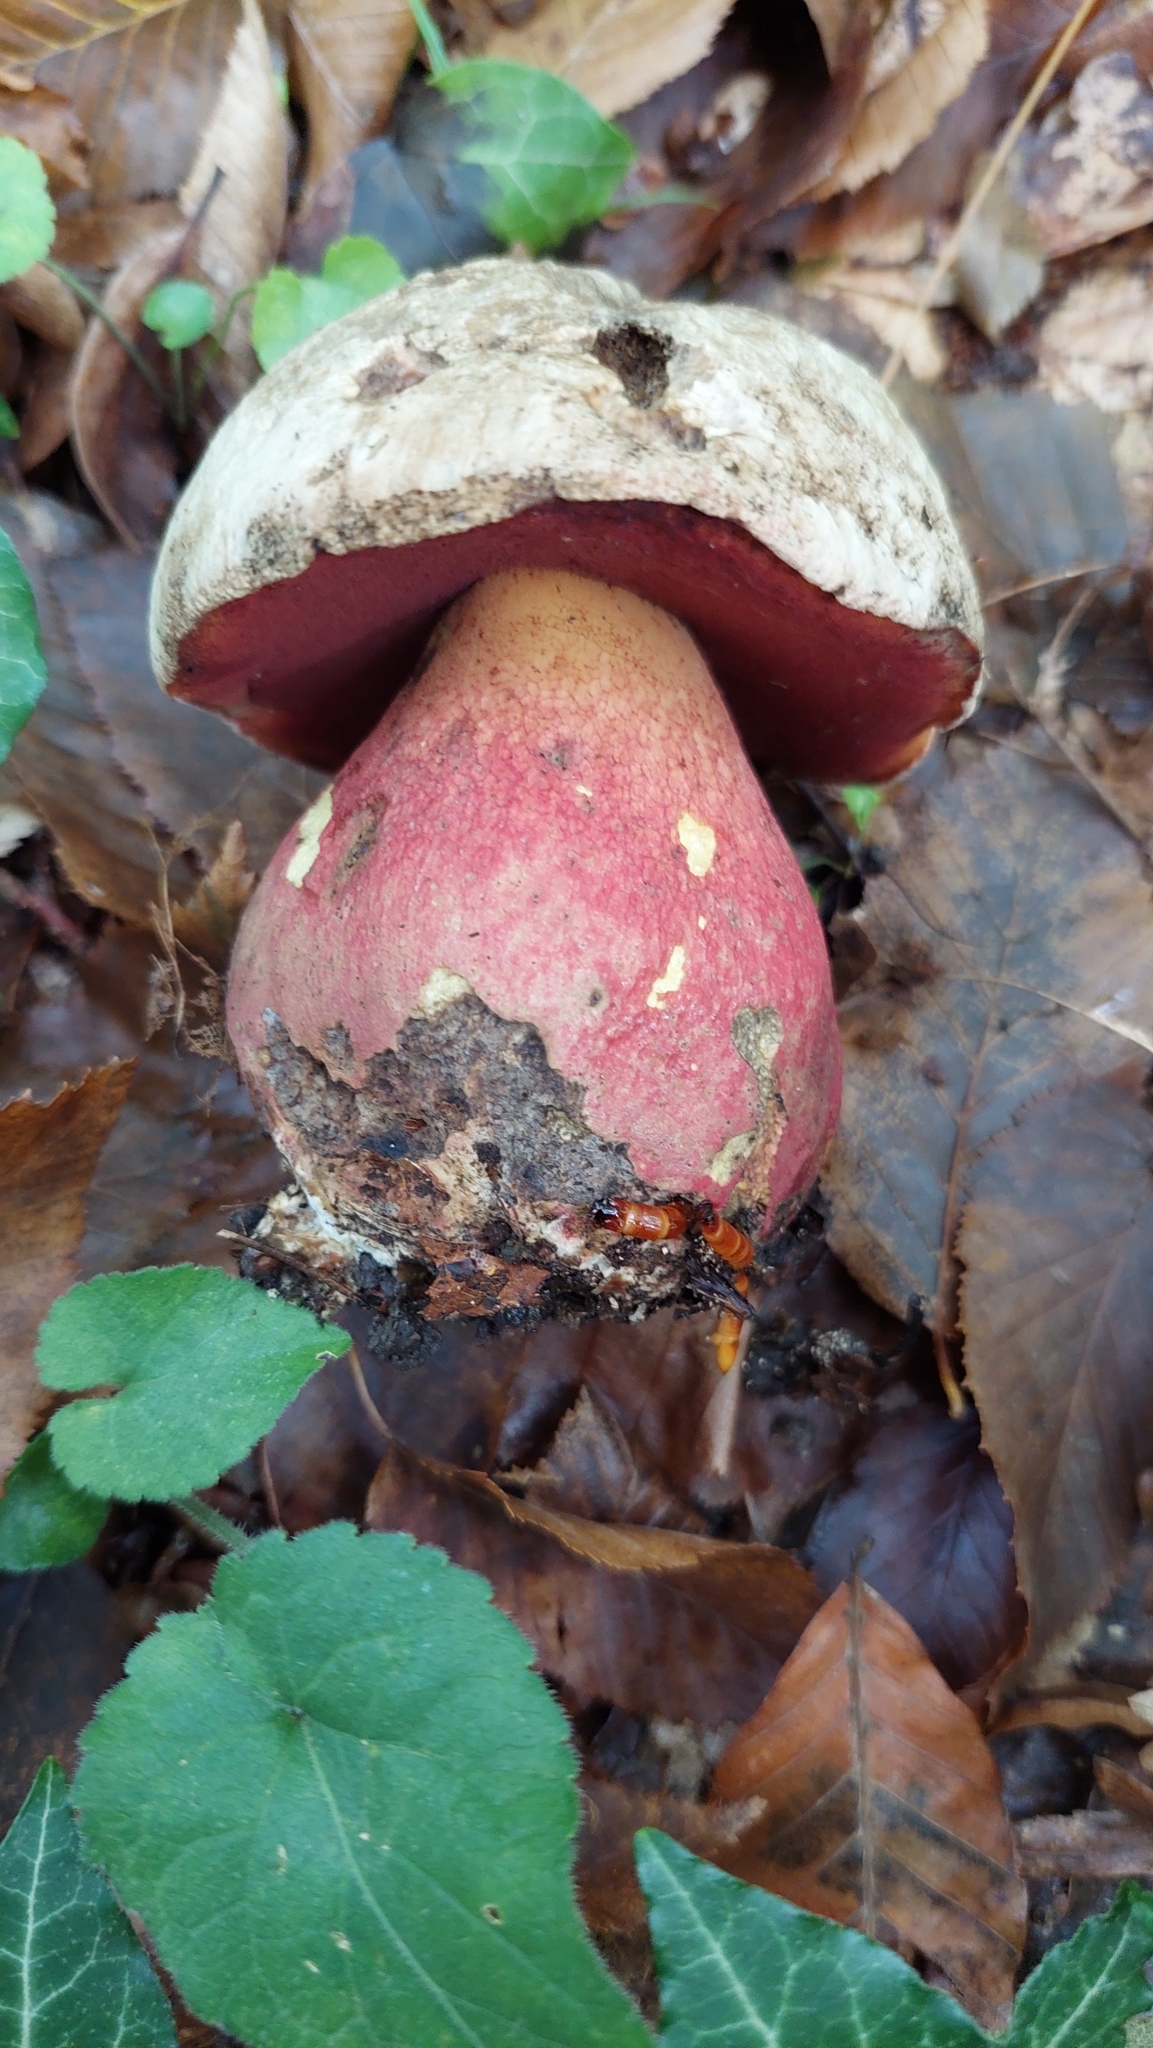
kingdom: Fungi
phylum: Basidiomycota
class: Agaricomycetes
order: Boletales
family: Boletaceae
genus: Rubroboletus
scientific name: Rubroboletus satanas
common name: Devil's bolete
